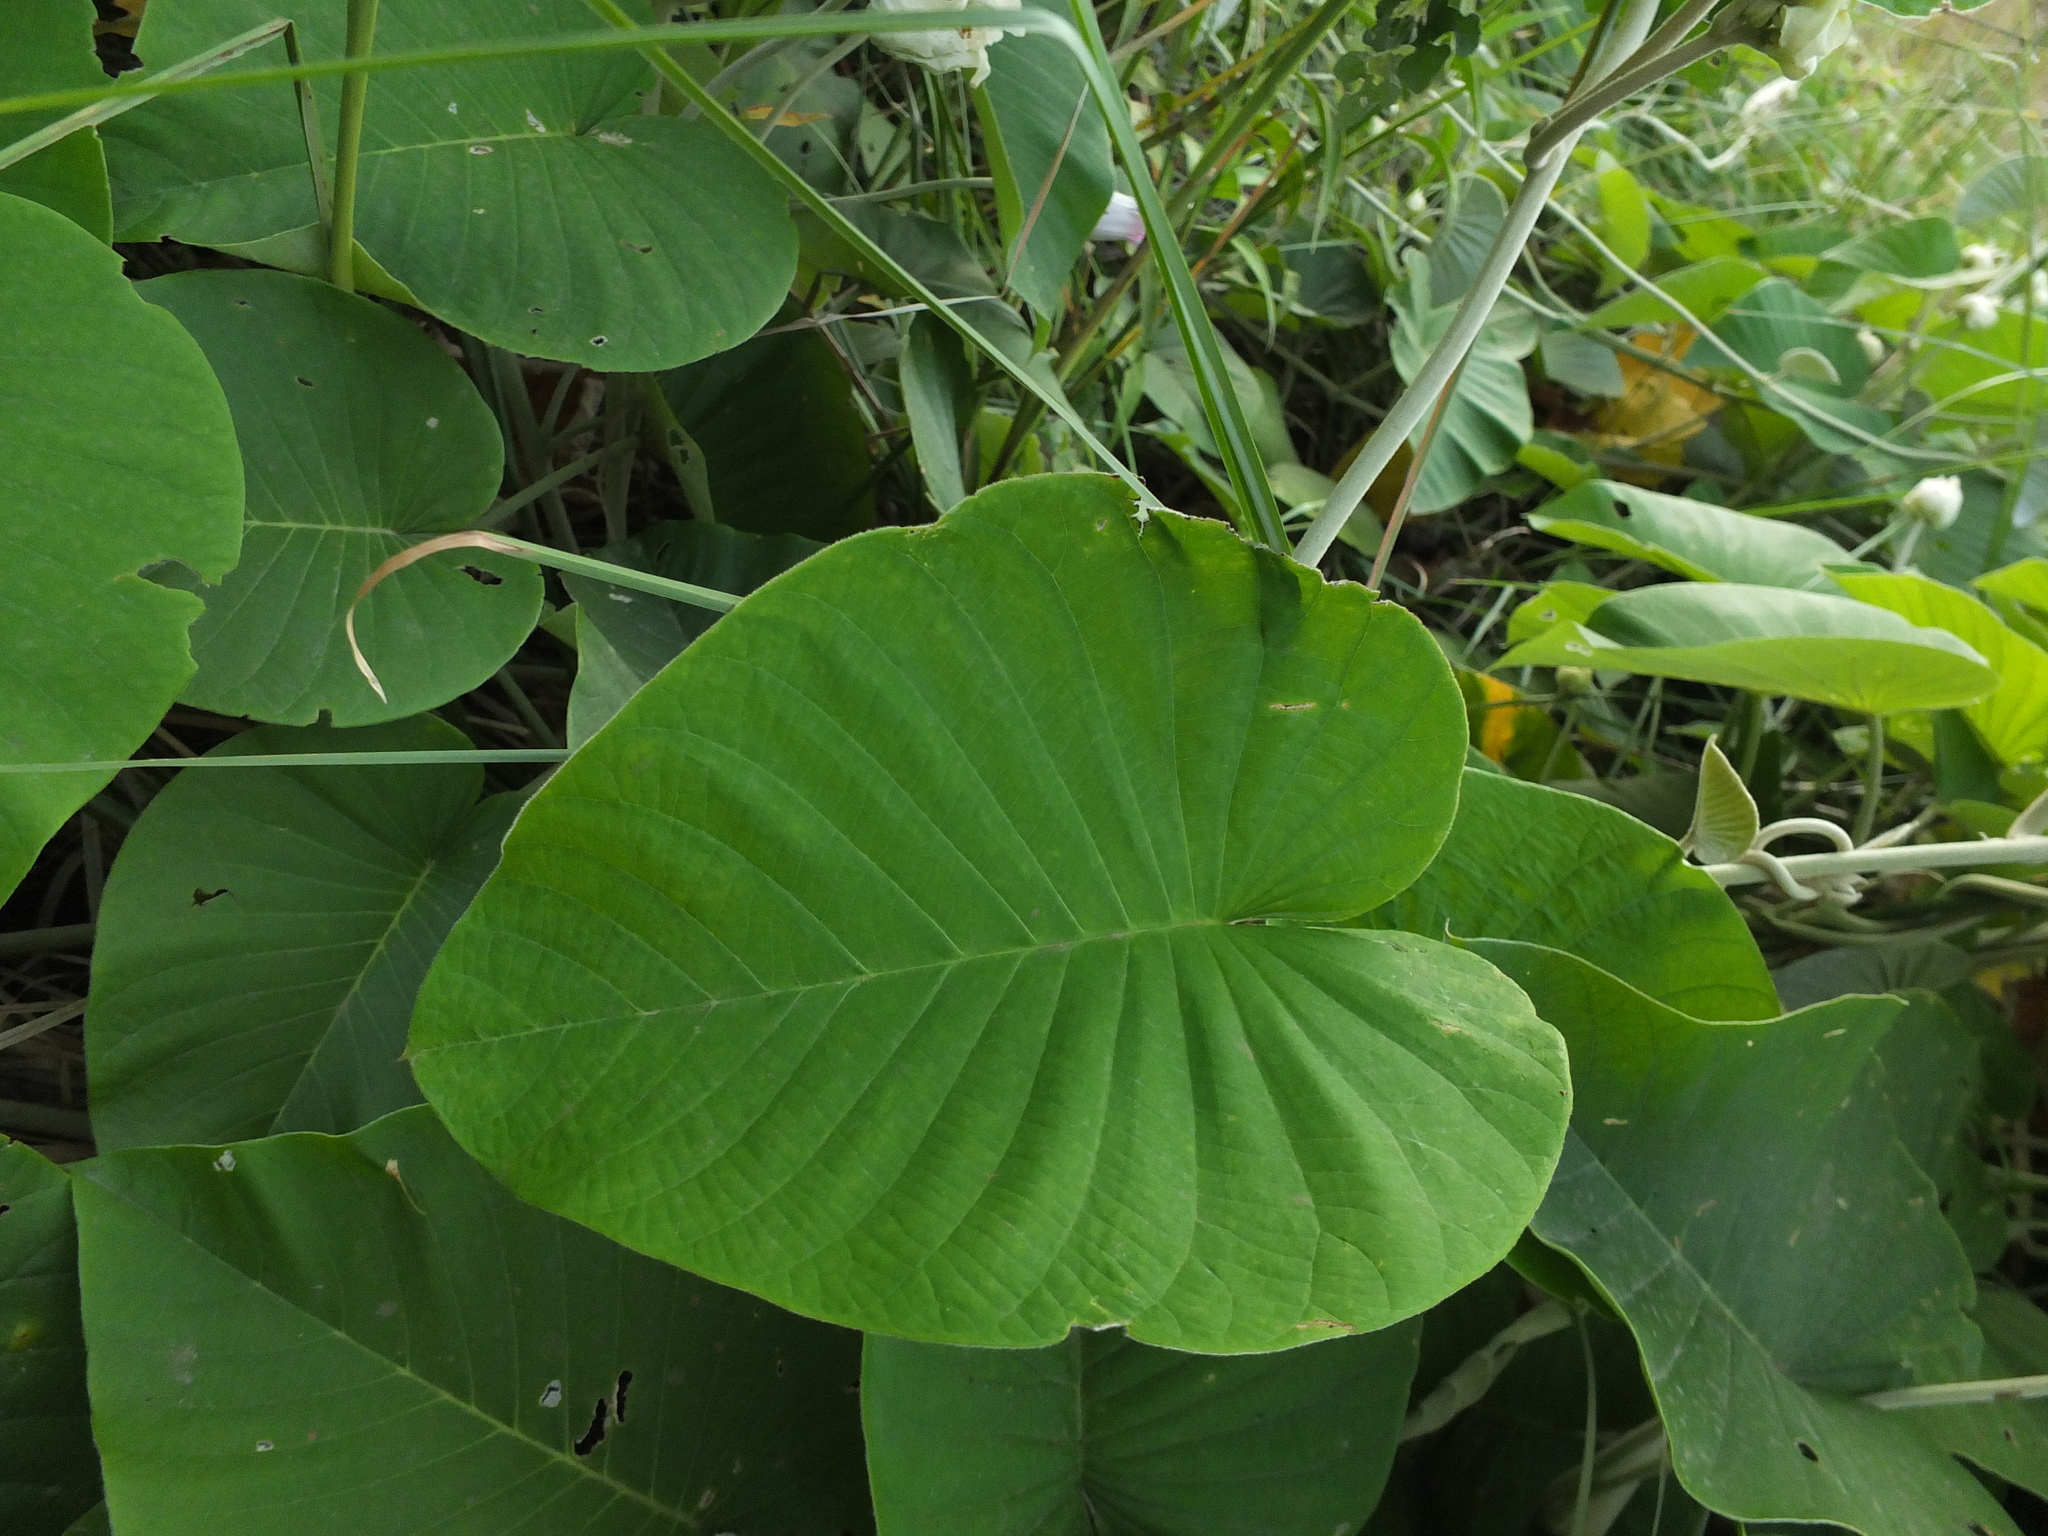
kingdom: Plantae
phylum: Tracheophyta
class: Magnoliopsida
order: Solanales
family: Convolvulaceae
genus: Argyreia
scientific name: Argyreia nervosa
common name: Elephant creeper
